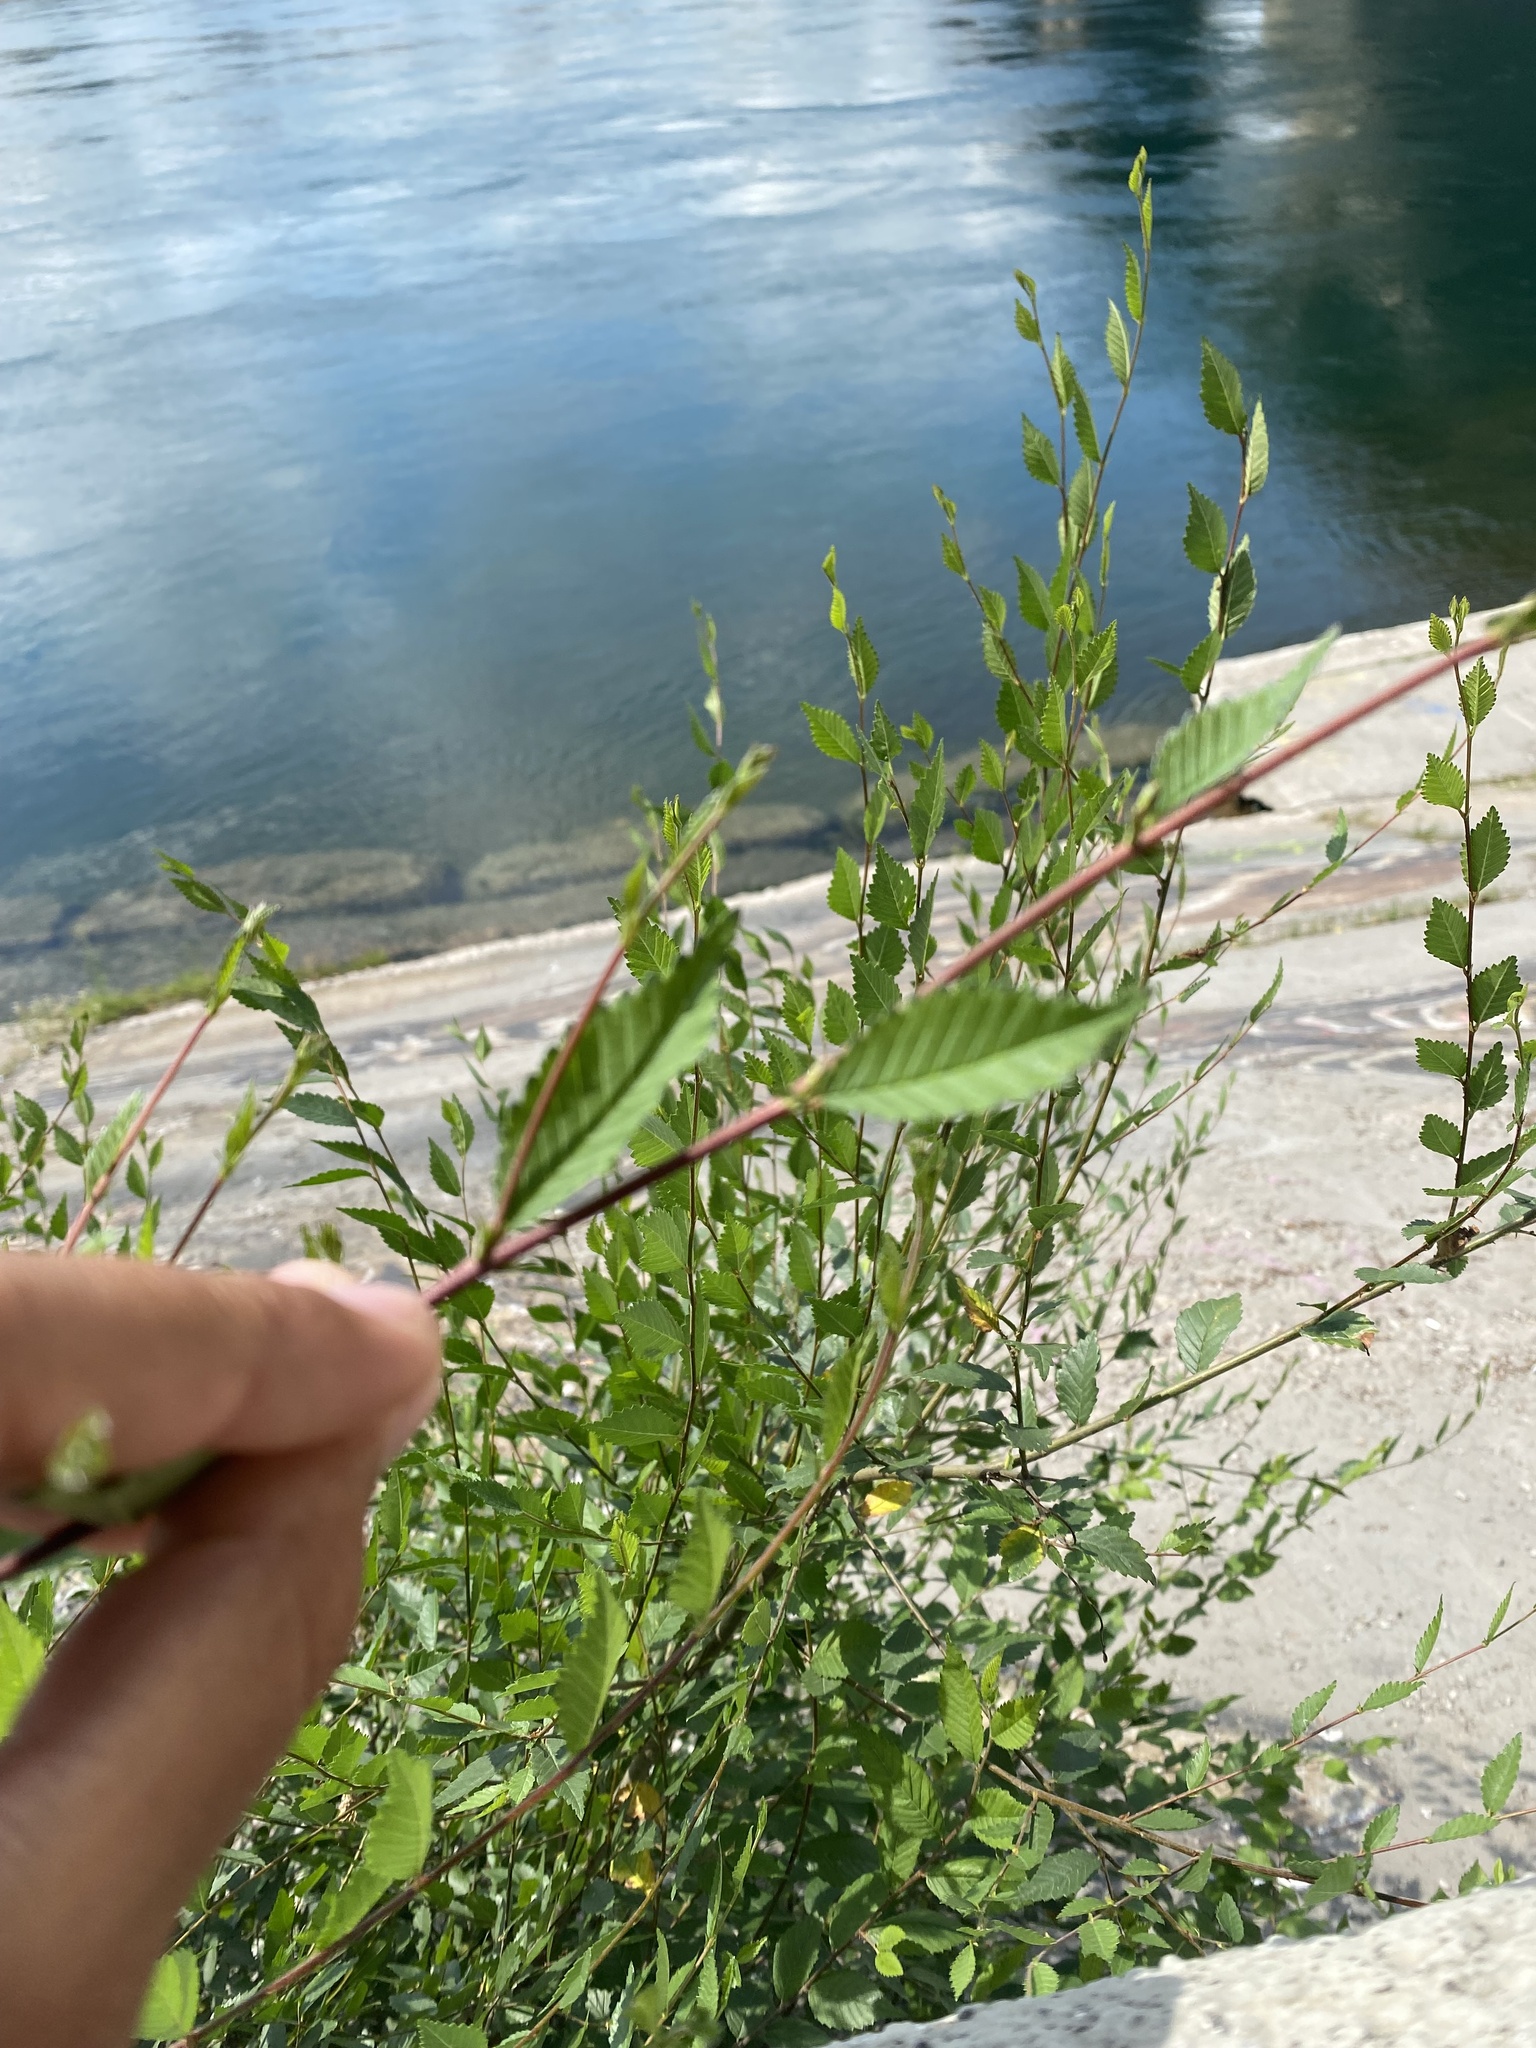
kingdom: Plantae
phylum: Tracheophyta
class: Magnoliopsida
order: Rosales
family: Ulmaceae
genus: Ulmus
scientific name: Ulmus pumila
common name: Siberian elm
